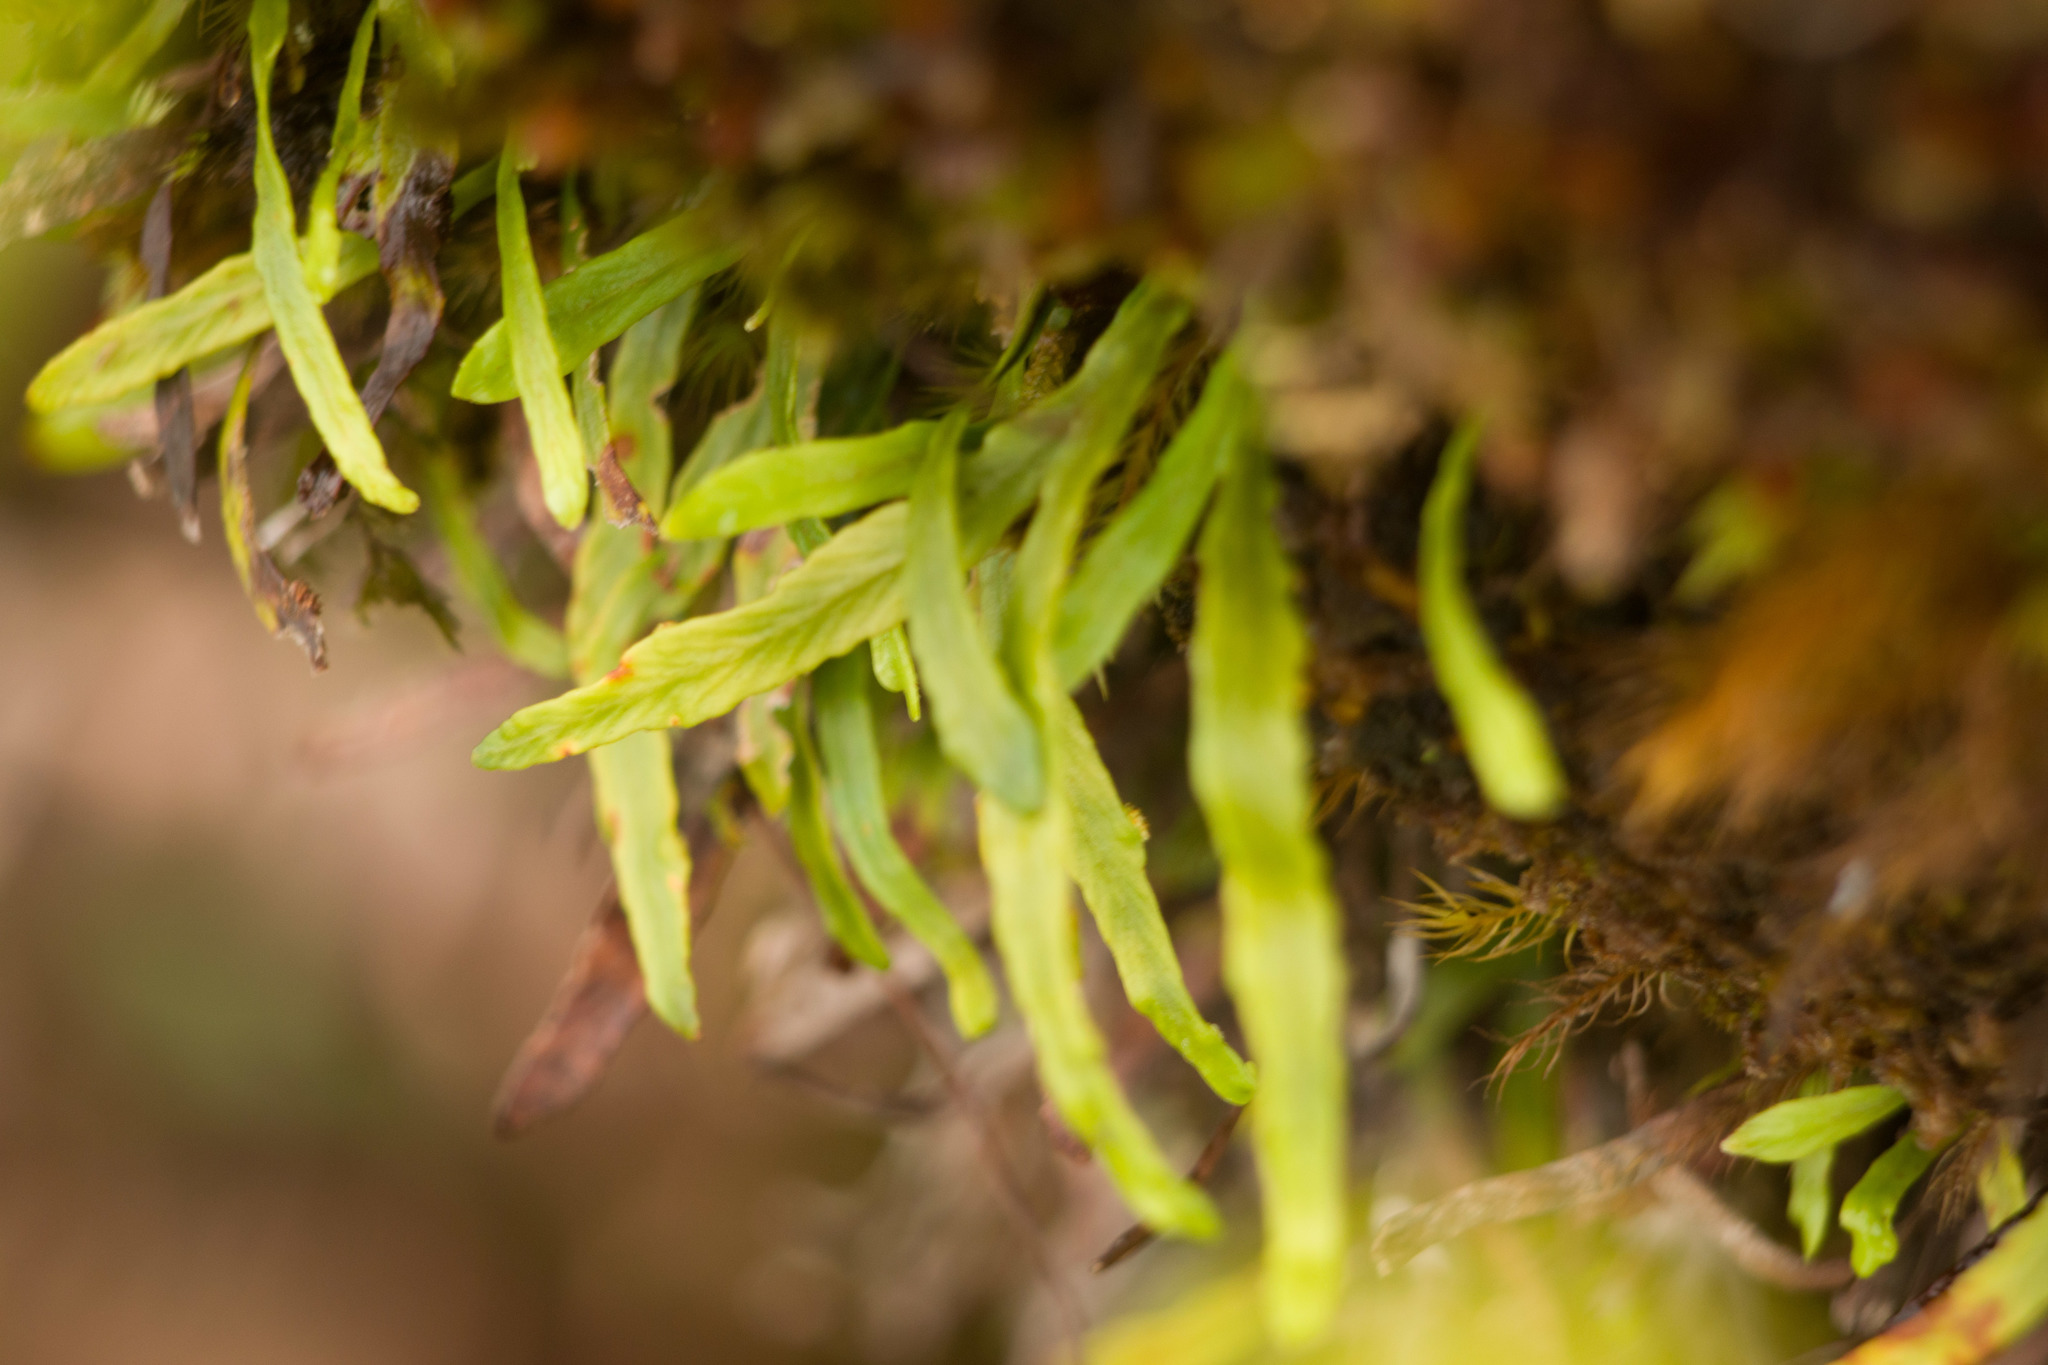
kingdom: Plantae
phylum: Tracheophyta
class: Polypodiopsida
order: Polypodiales
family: Polypodiaceae
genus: Adenophorus
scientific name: Adenophorus tenellus
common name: Kolokolo
